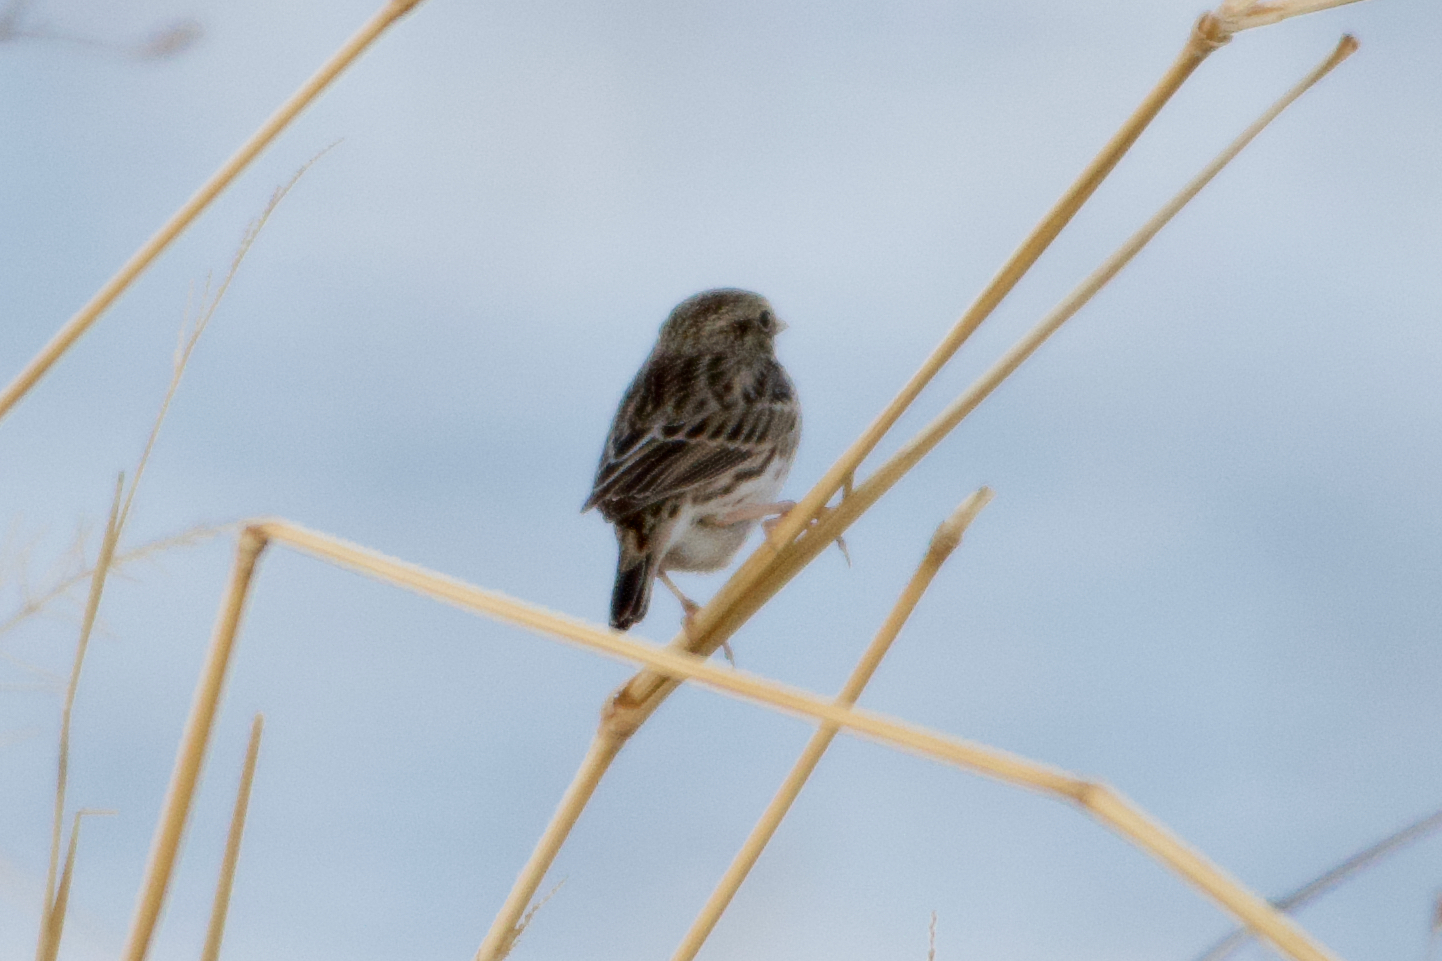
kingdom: Animalia
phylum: Chordata
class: Aves
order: Passeriformes
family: Passerellidae
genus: Passerculus
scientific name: Passerculus sandwichensis
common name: Savannah sparrow
